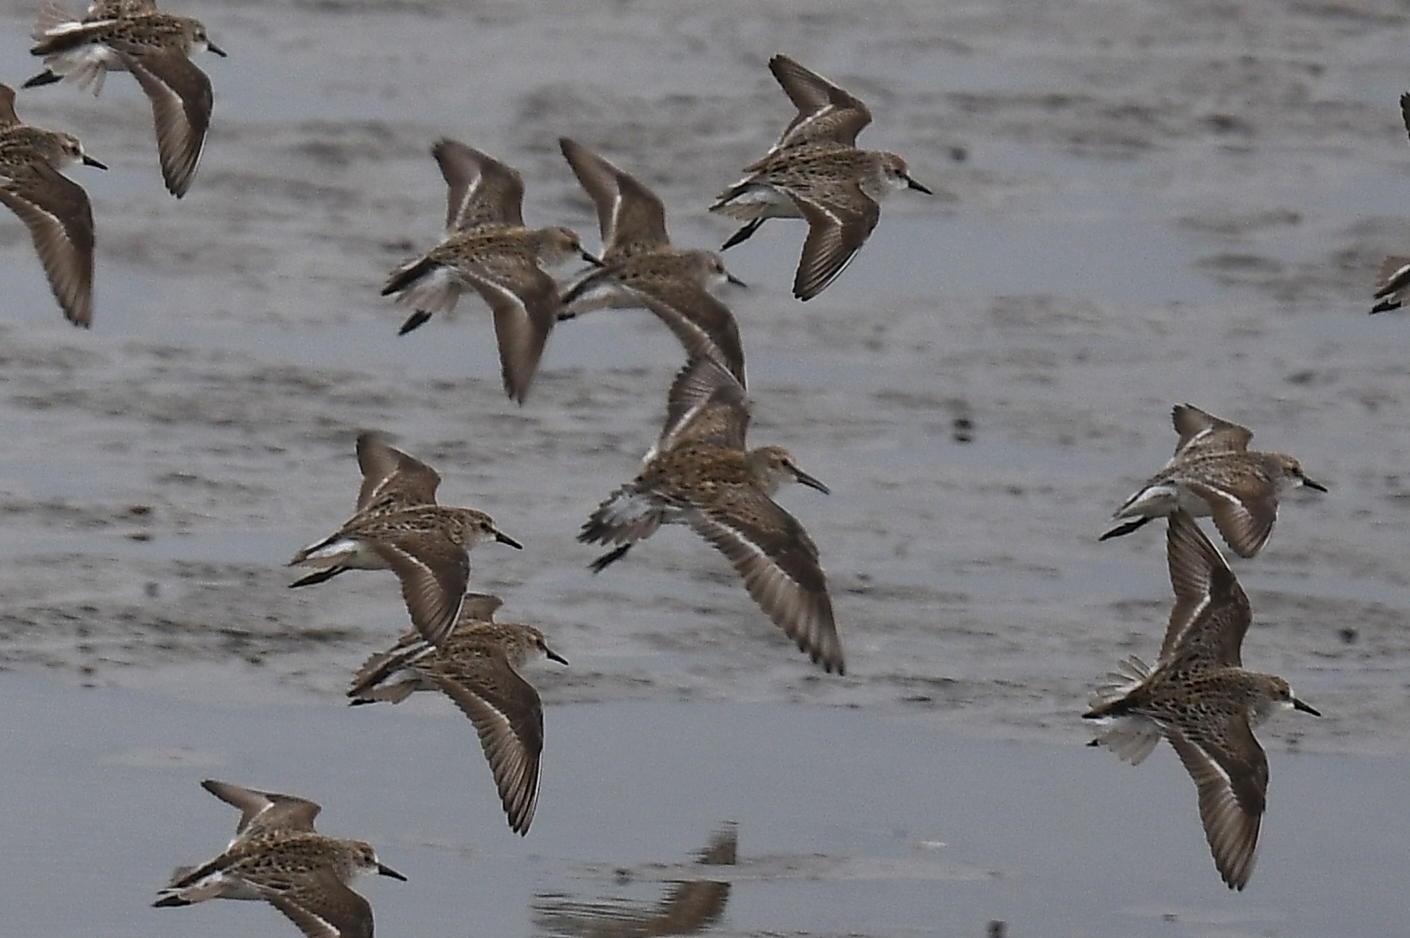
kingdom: Animalia
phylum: Chordata
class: Aves
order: Charadriiformes
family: Scolopacidae
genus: Calidris
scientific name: Calidris fuscicollis
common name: White-rumped sandpiper
